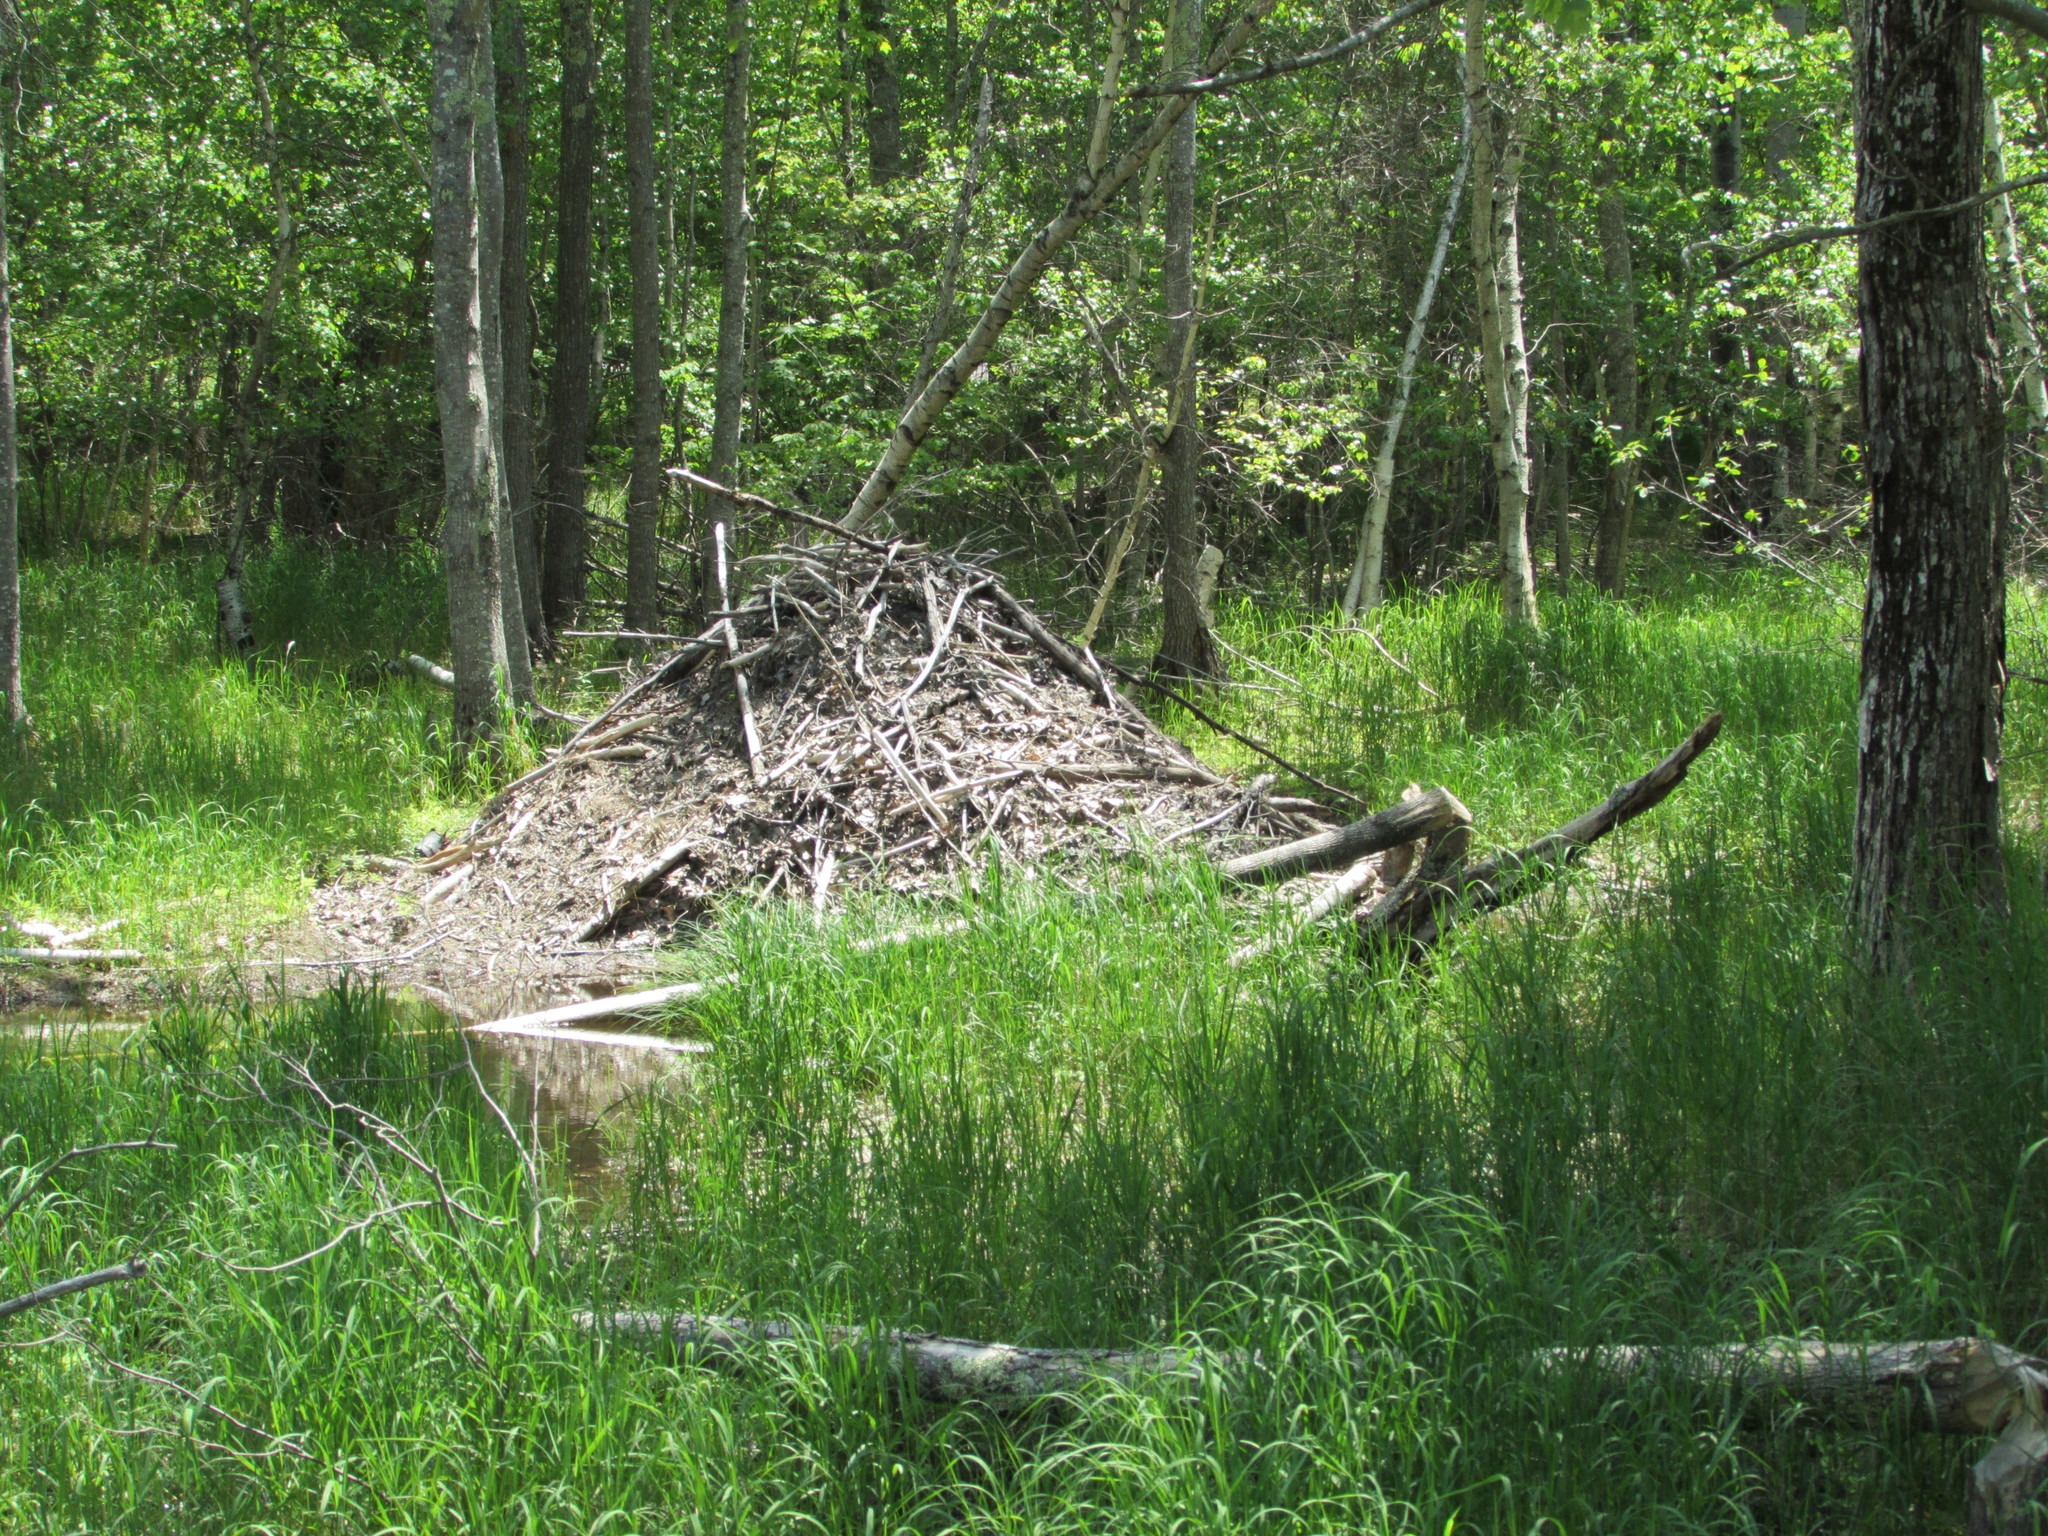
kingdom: Animalia
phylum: Chordata
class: Mammalia
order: Rodentia
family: Castoridae
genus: Castor
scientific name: Castor canadensis
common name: American beaver
